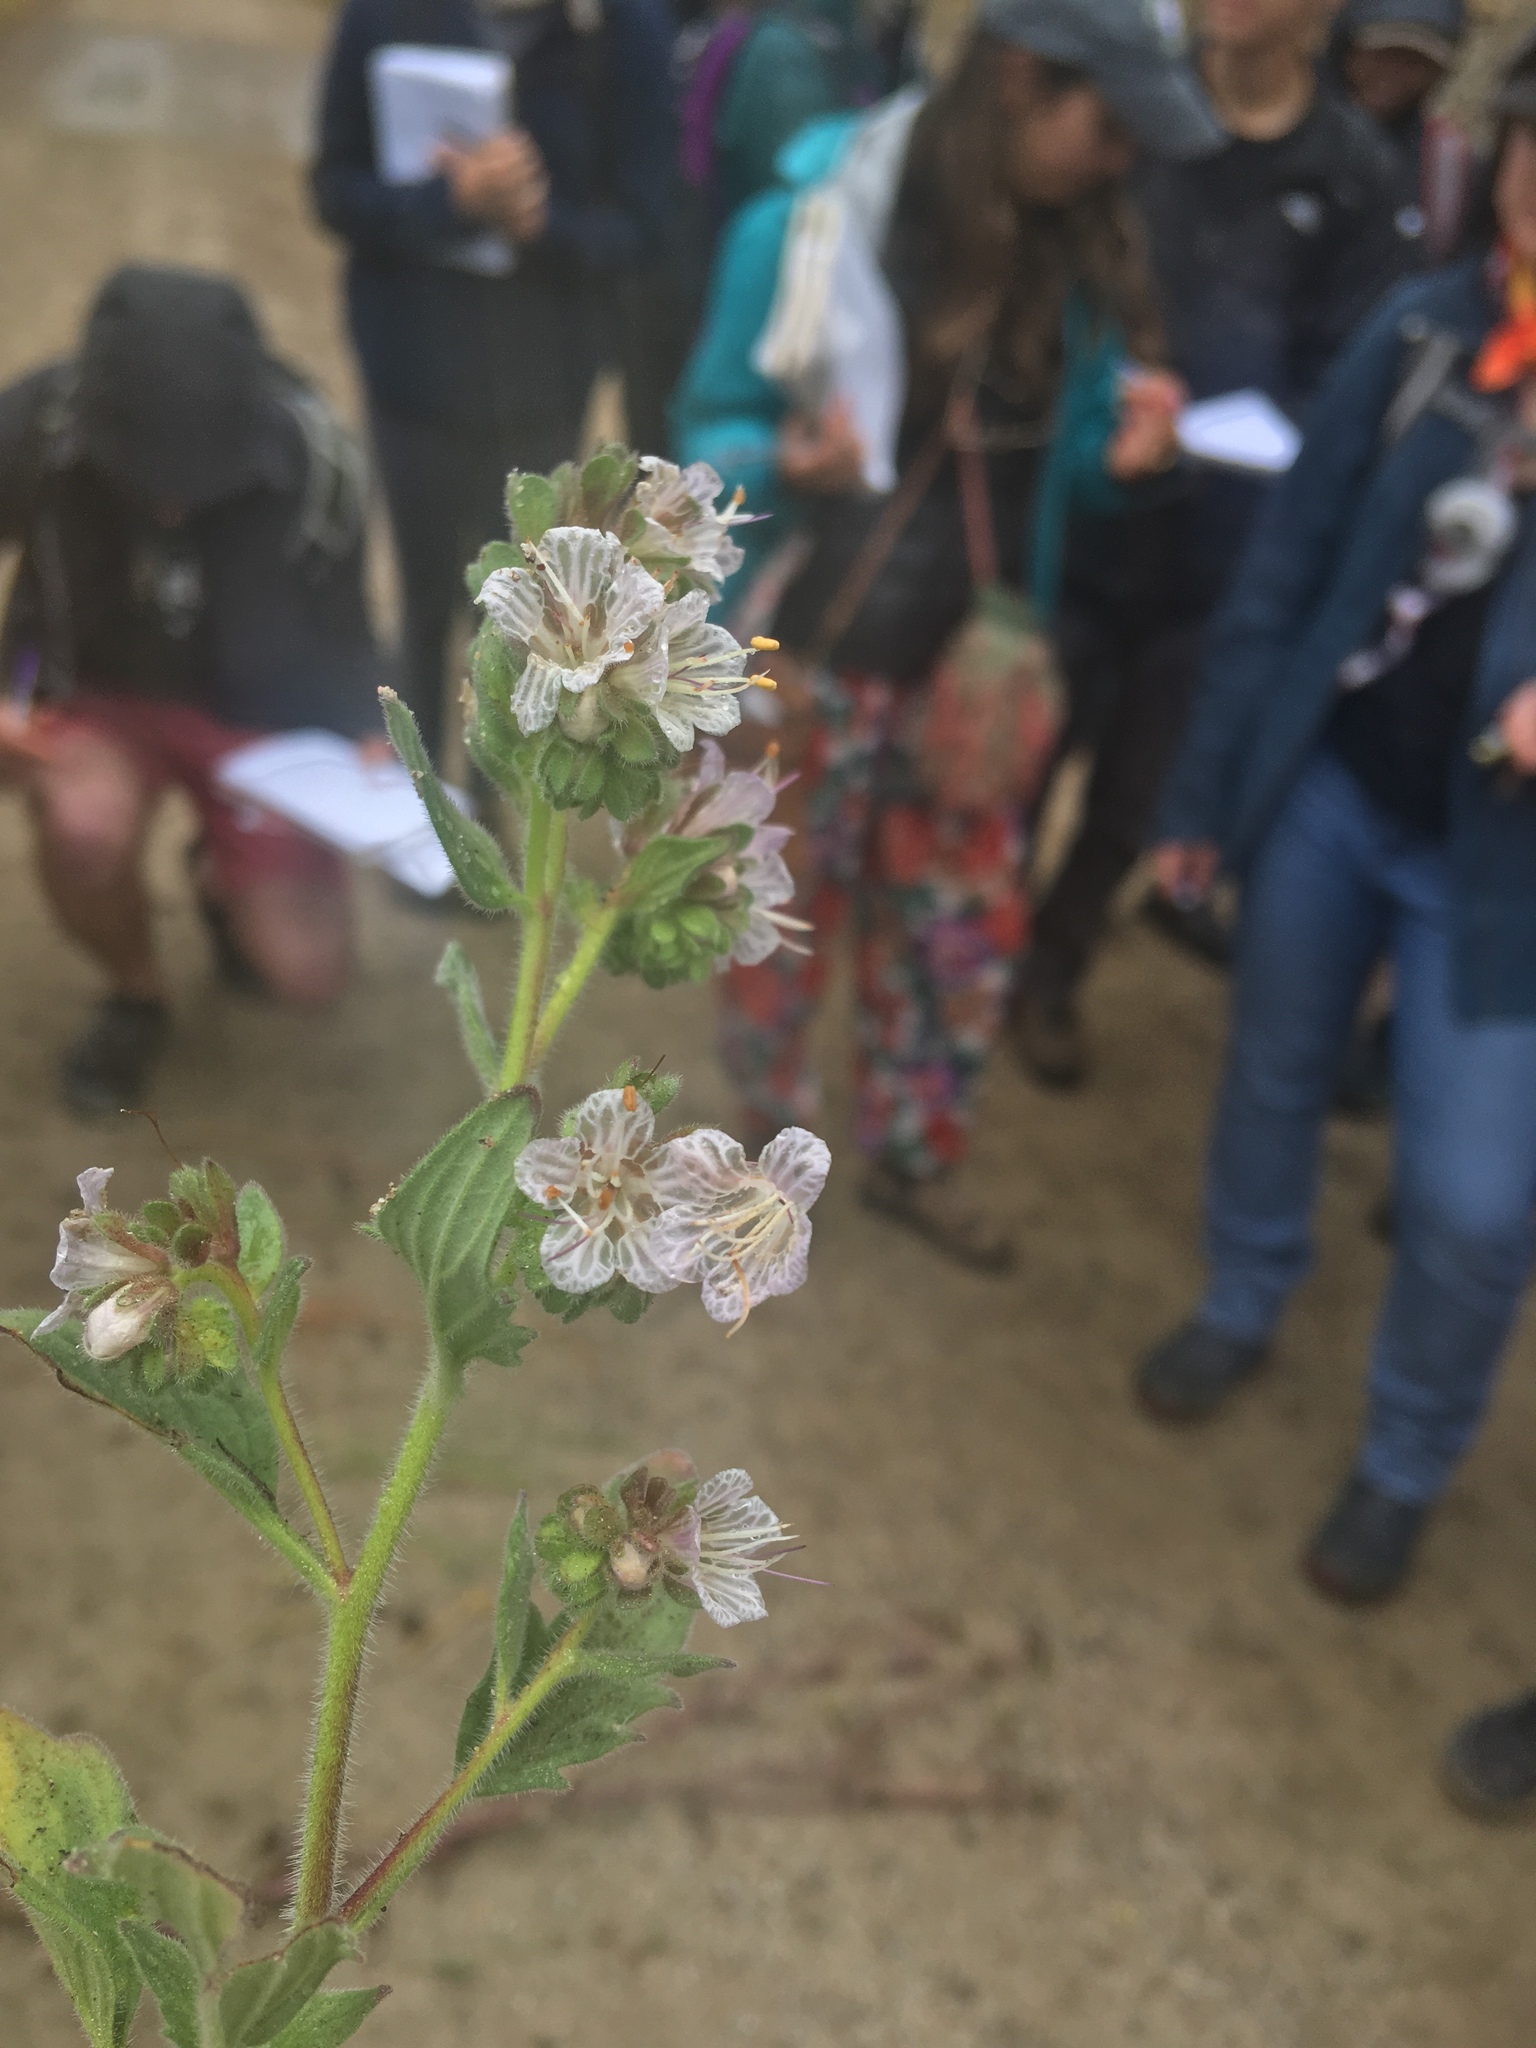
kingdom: Plantae
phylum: Tracheophyta
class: Magnoliopsida
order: Boraginales
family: Hydrophyllaceae
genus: Phacelia
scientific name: Phacelia grisea
